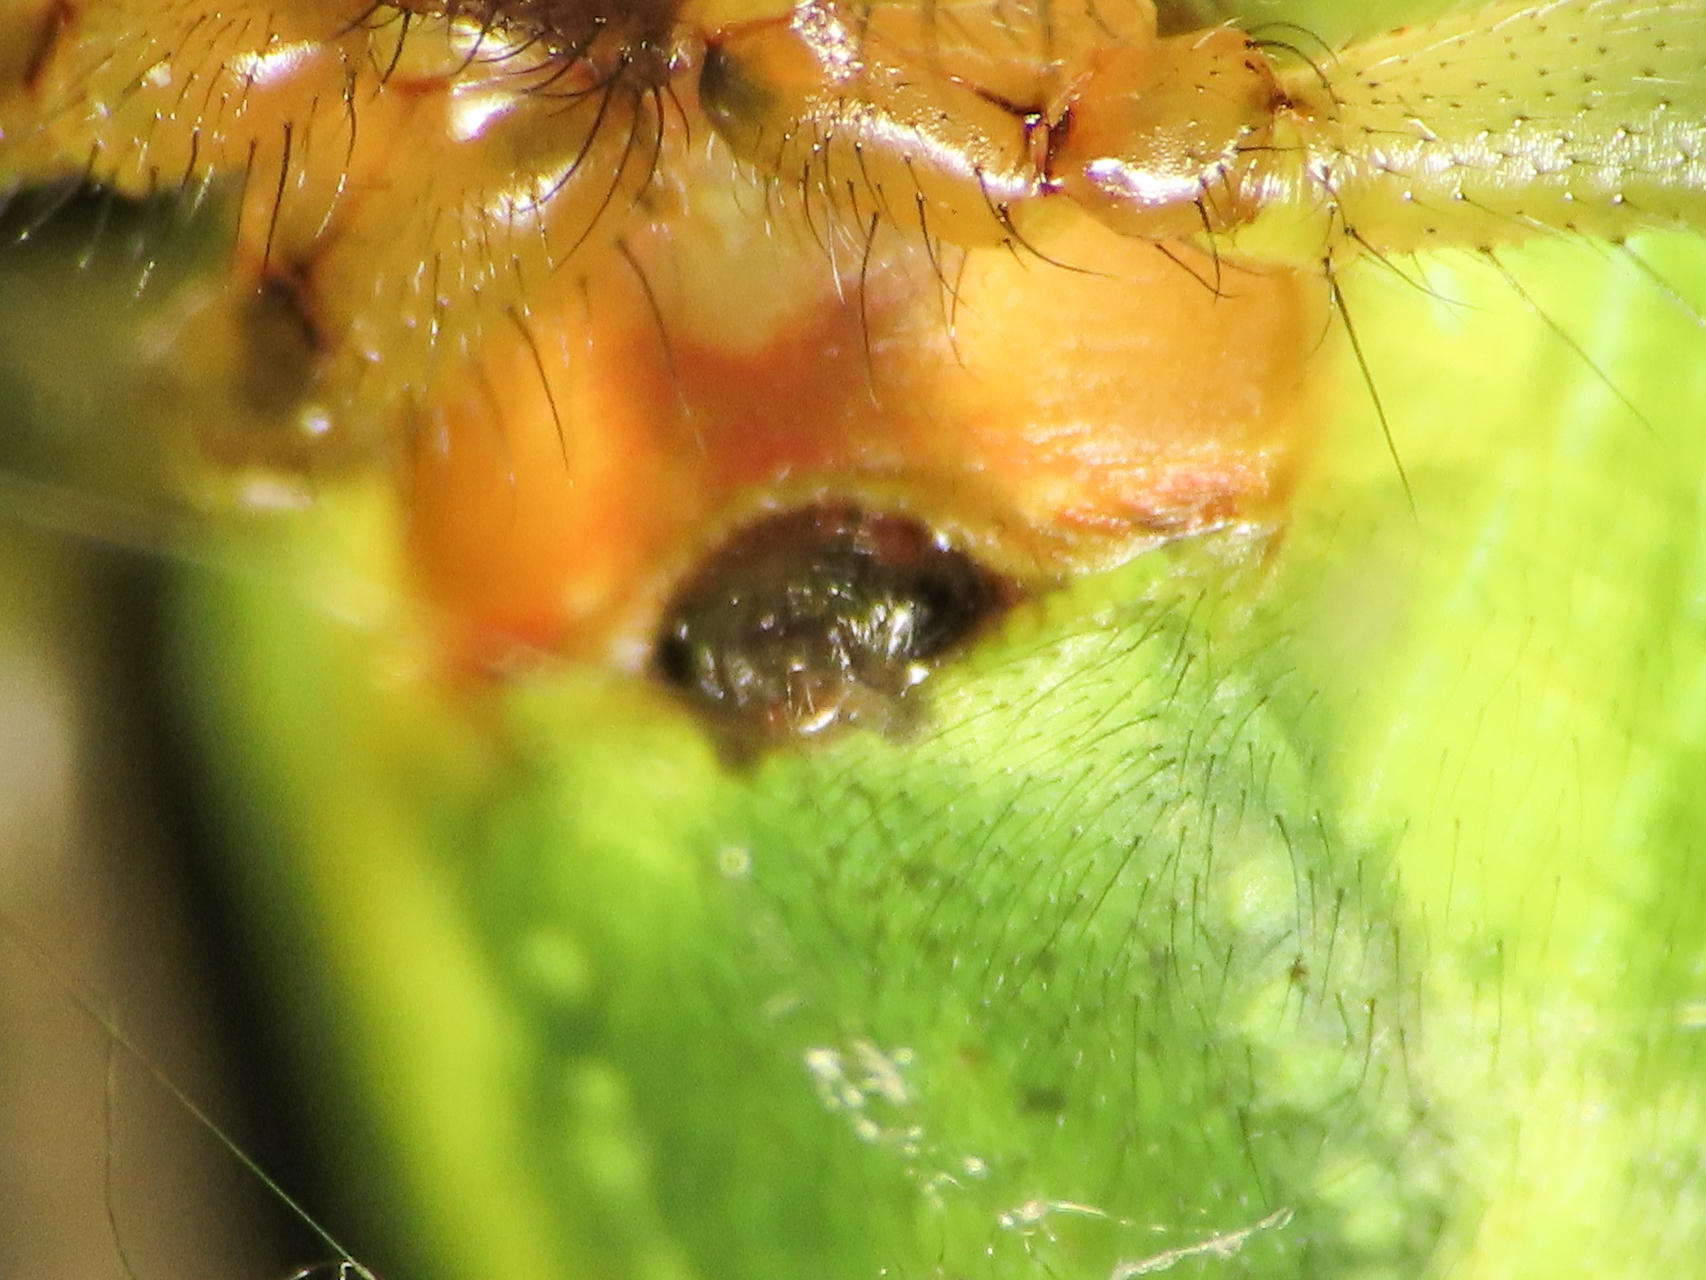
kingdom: Animalia
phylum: Arthropoda
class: Arachnida
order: Araneae
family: Araneidae
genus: Araniella
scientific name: Araniella cucurbitina
